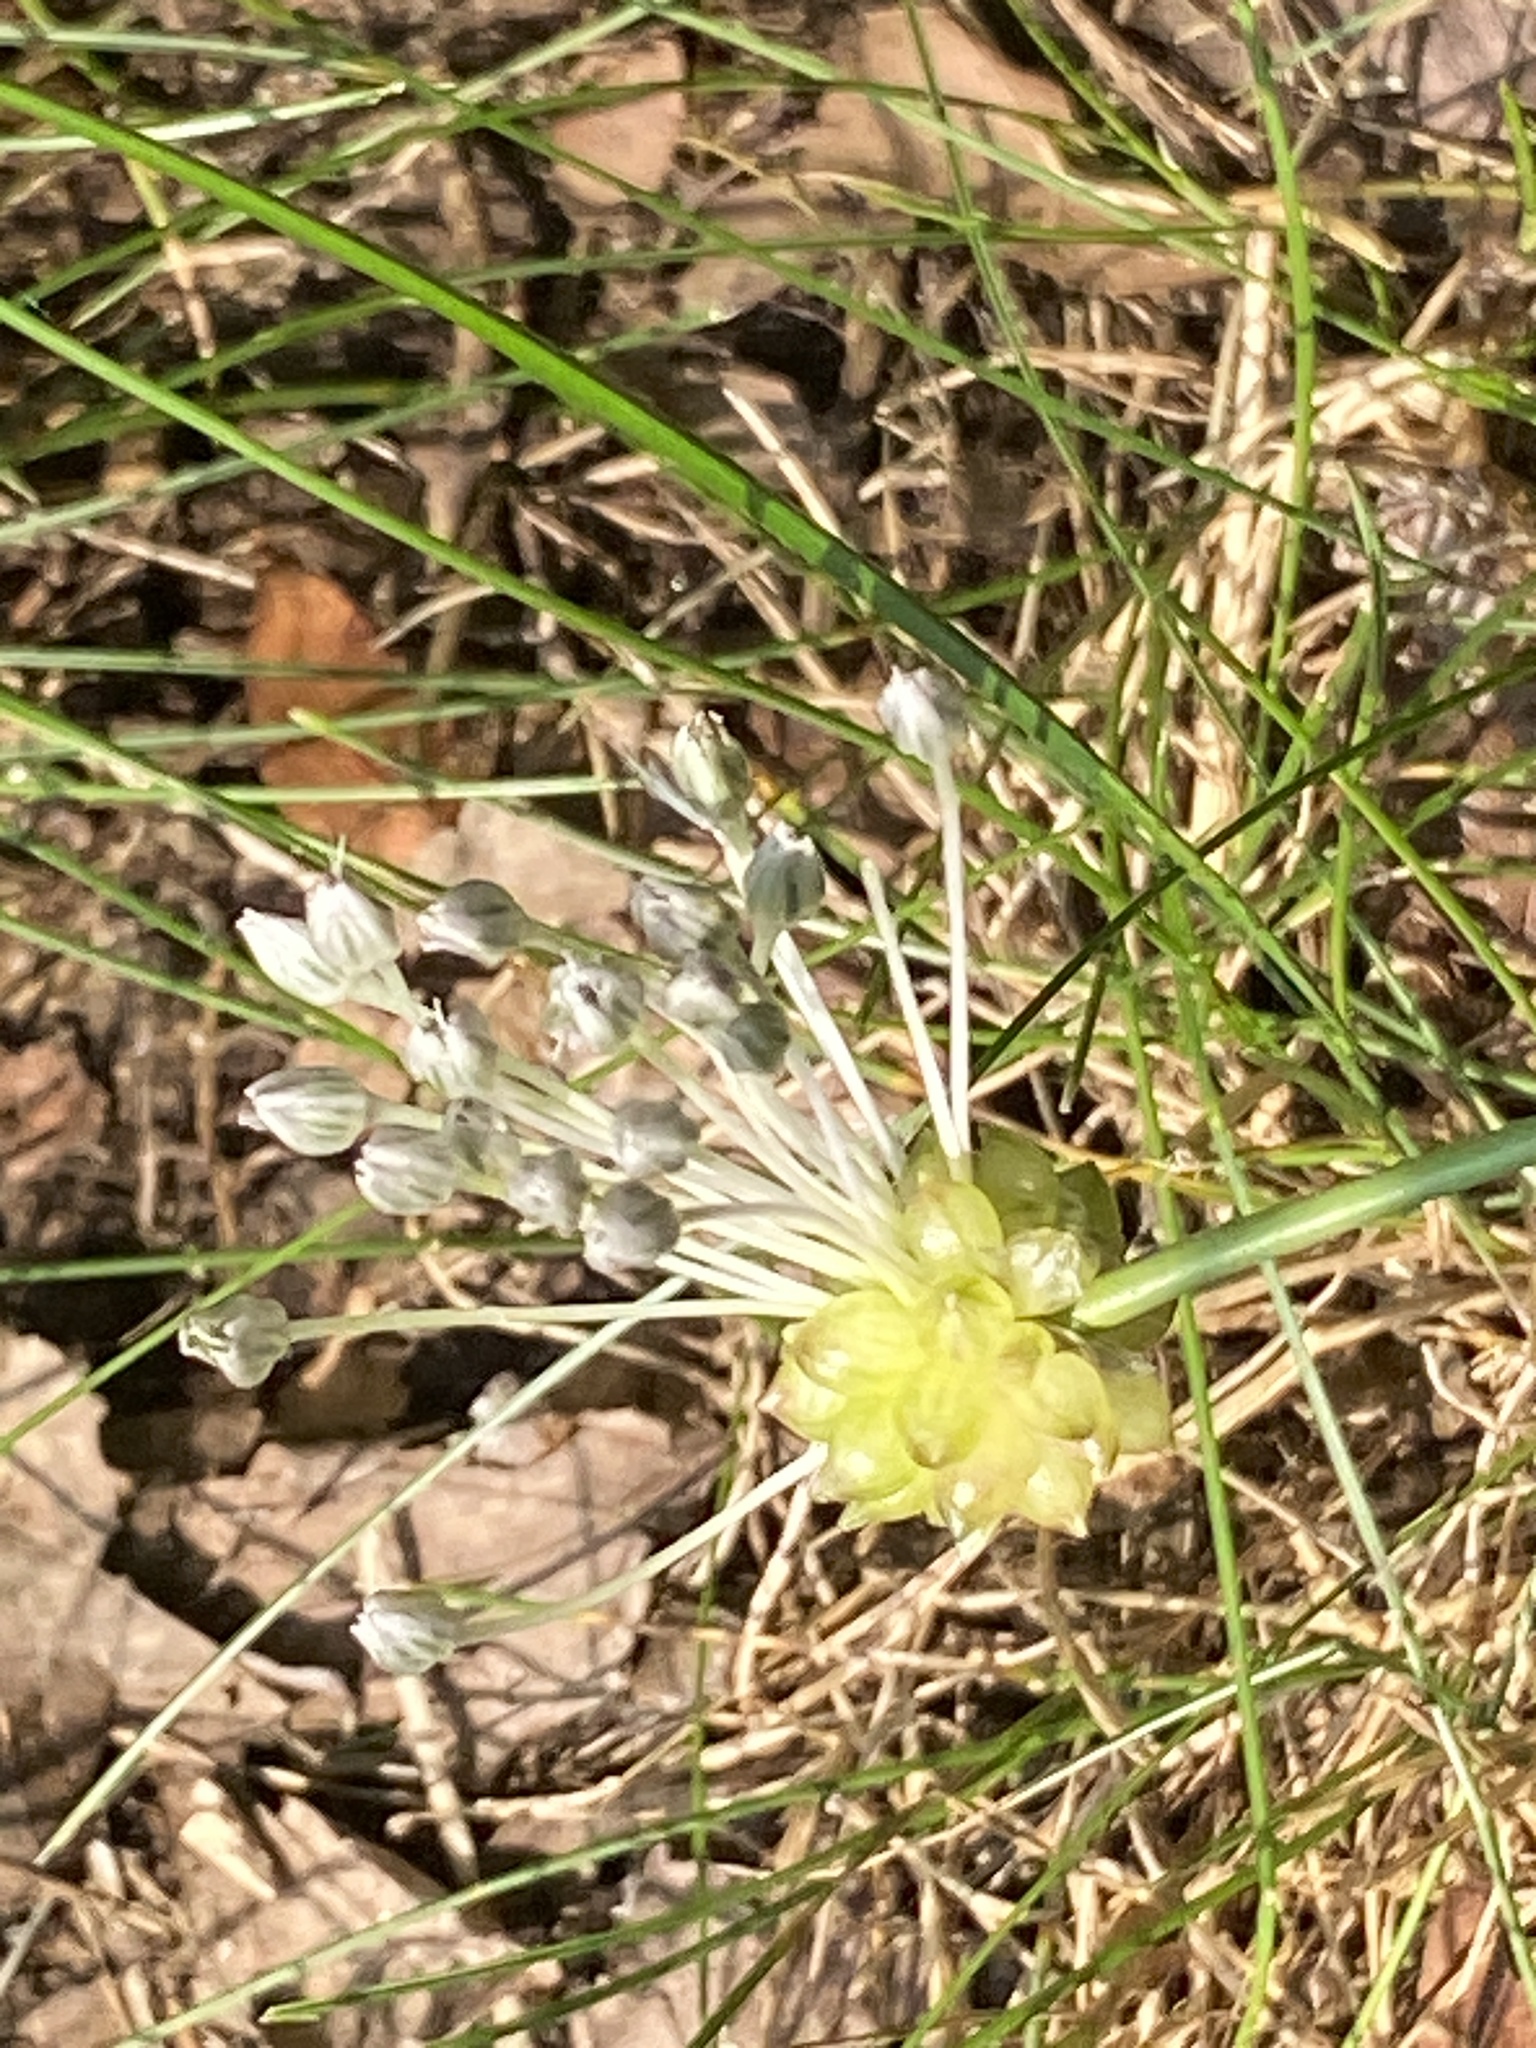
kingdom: Plantae
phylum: Tracheophyta
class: Liliopsida
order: Asparagales
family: Amaryllidaceae
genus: Allium
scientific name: Allium vineale
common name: Crow garlic
